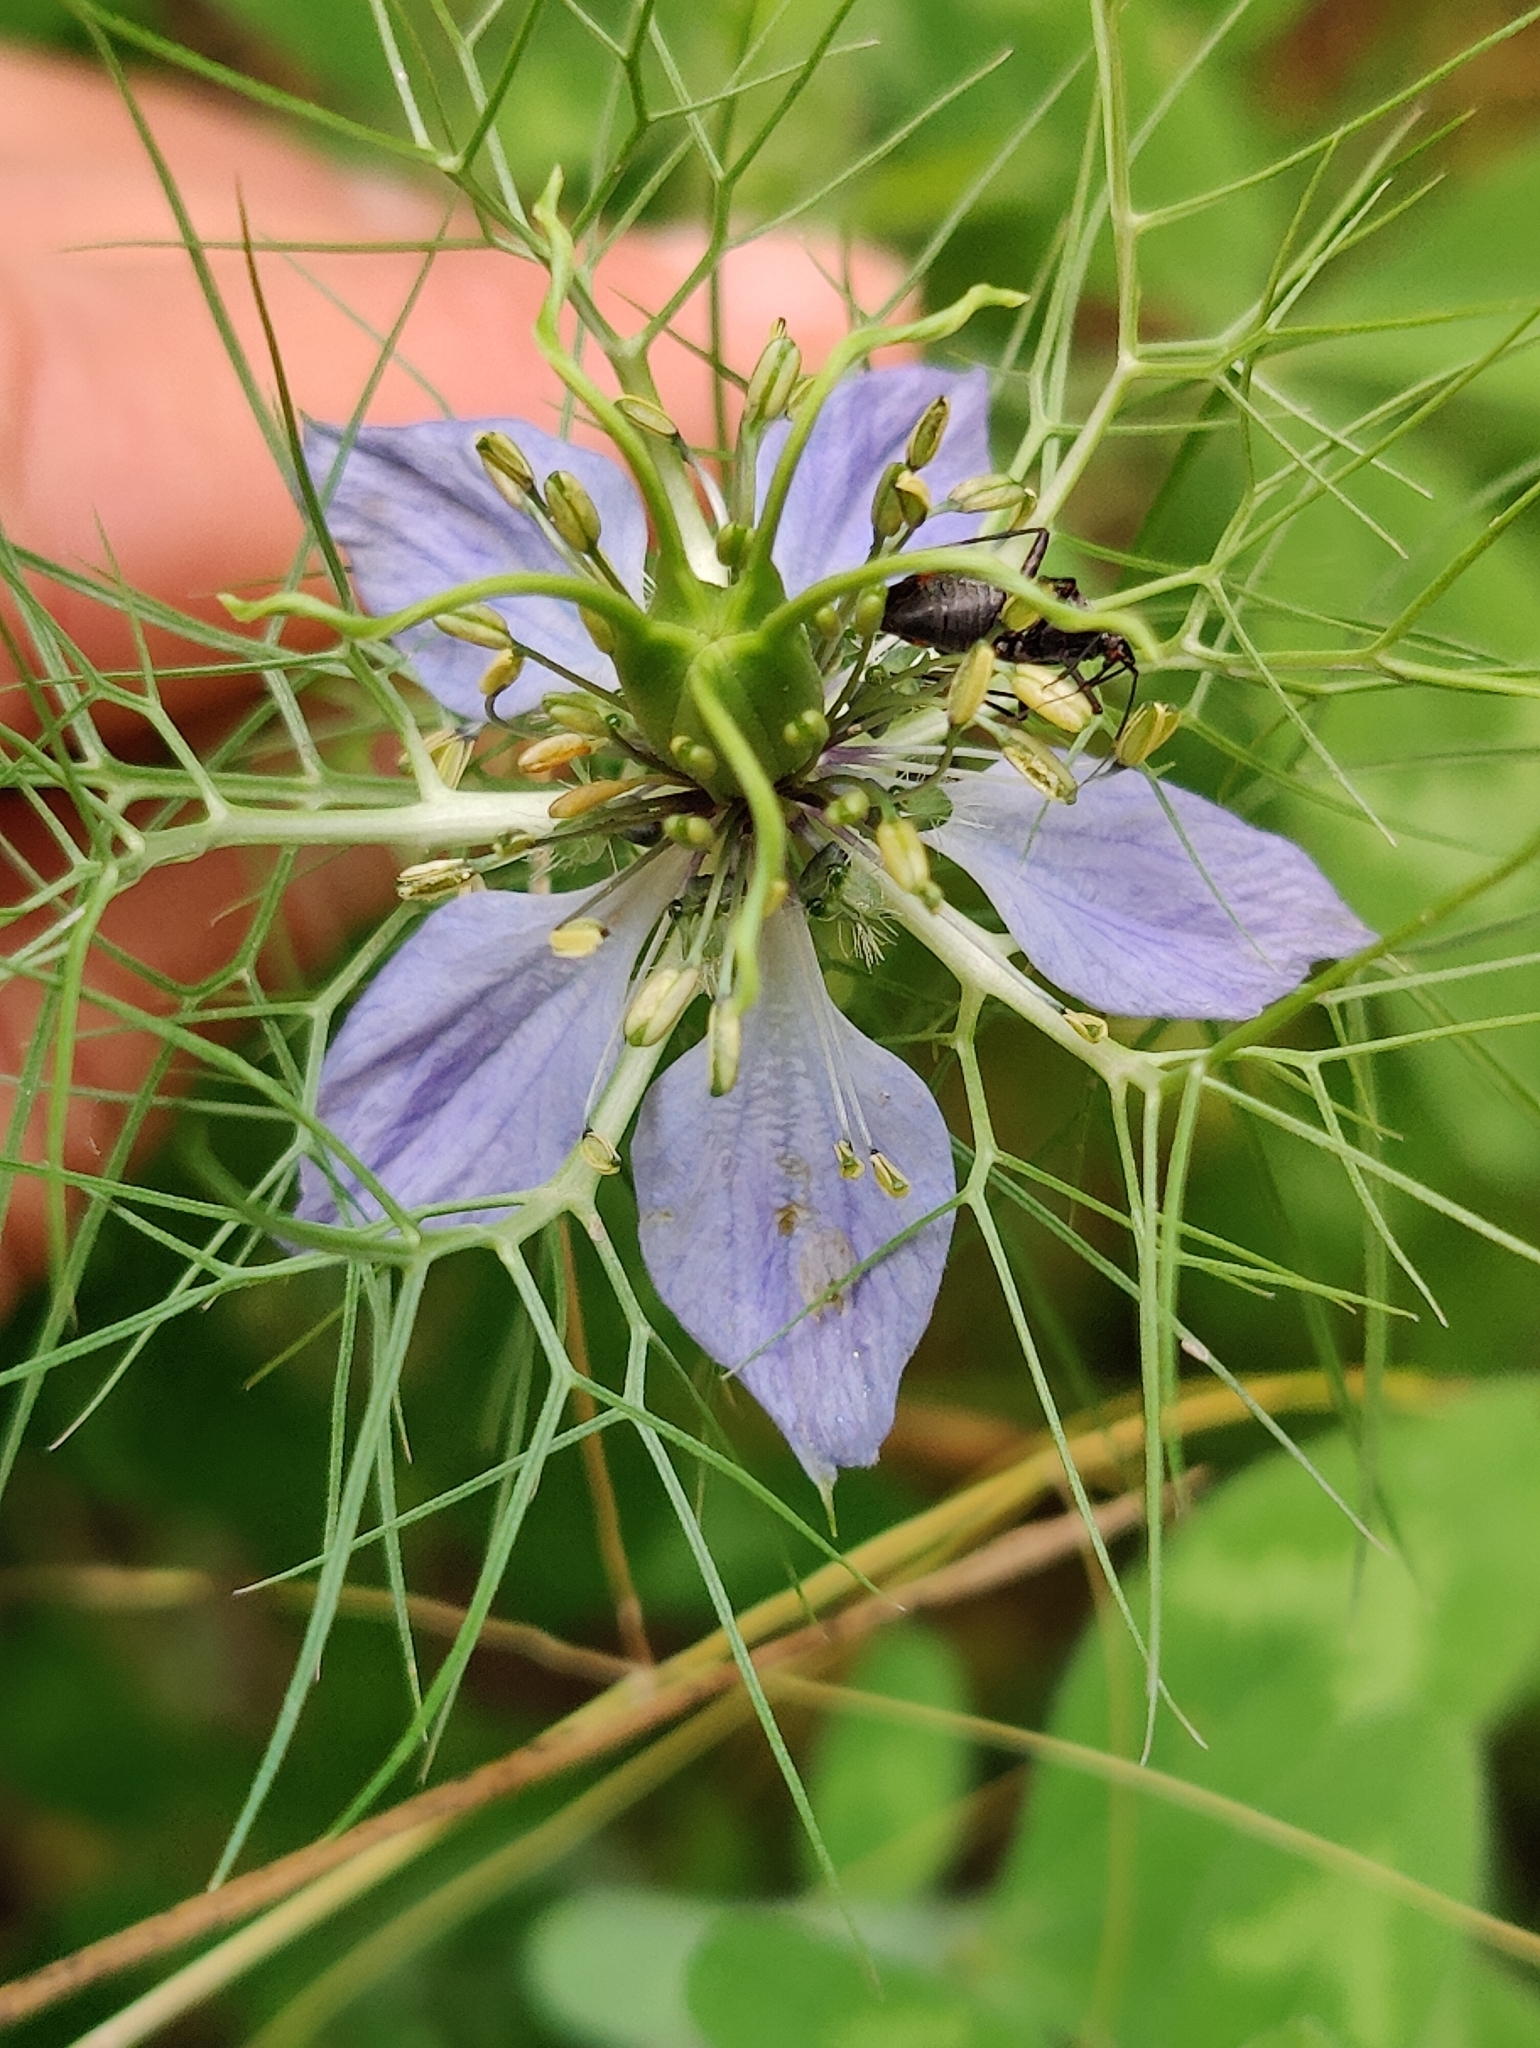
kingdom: Plantae
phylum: Tracheophyta
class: Magnoliopsida
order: Ranunculales
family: Ranunculaceae
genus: Nigella
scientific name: Nigella damascena
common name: Love-in-a-mist
